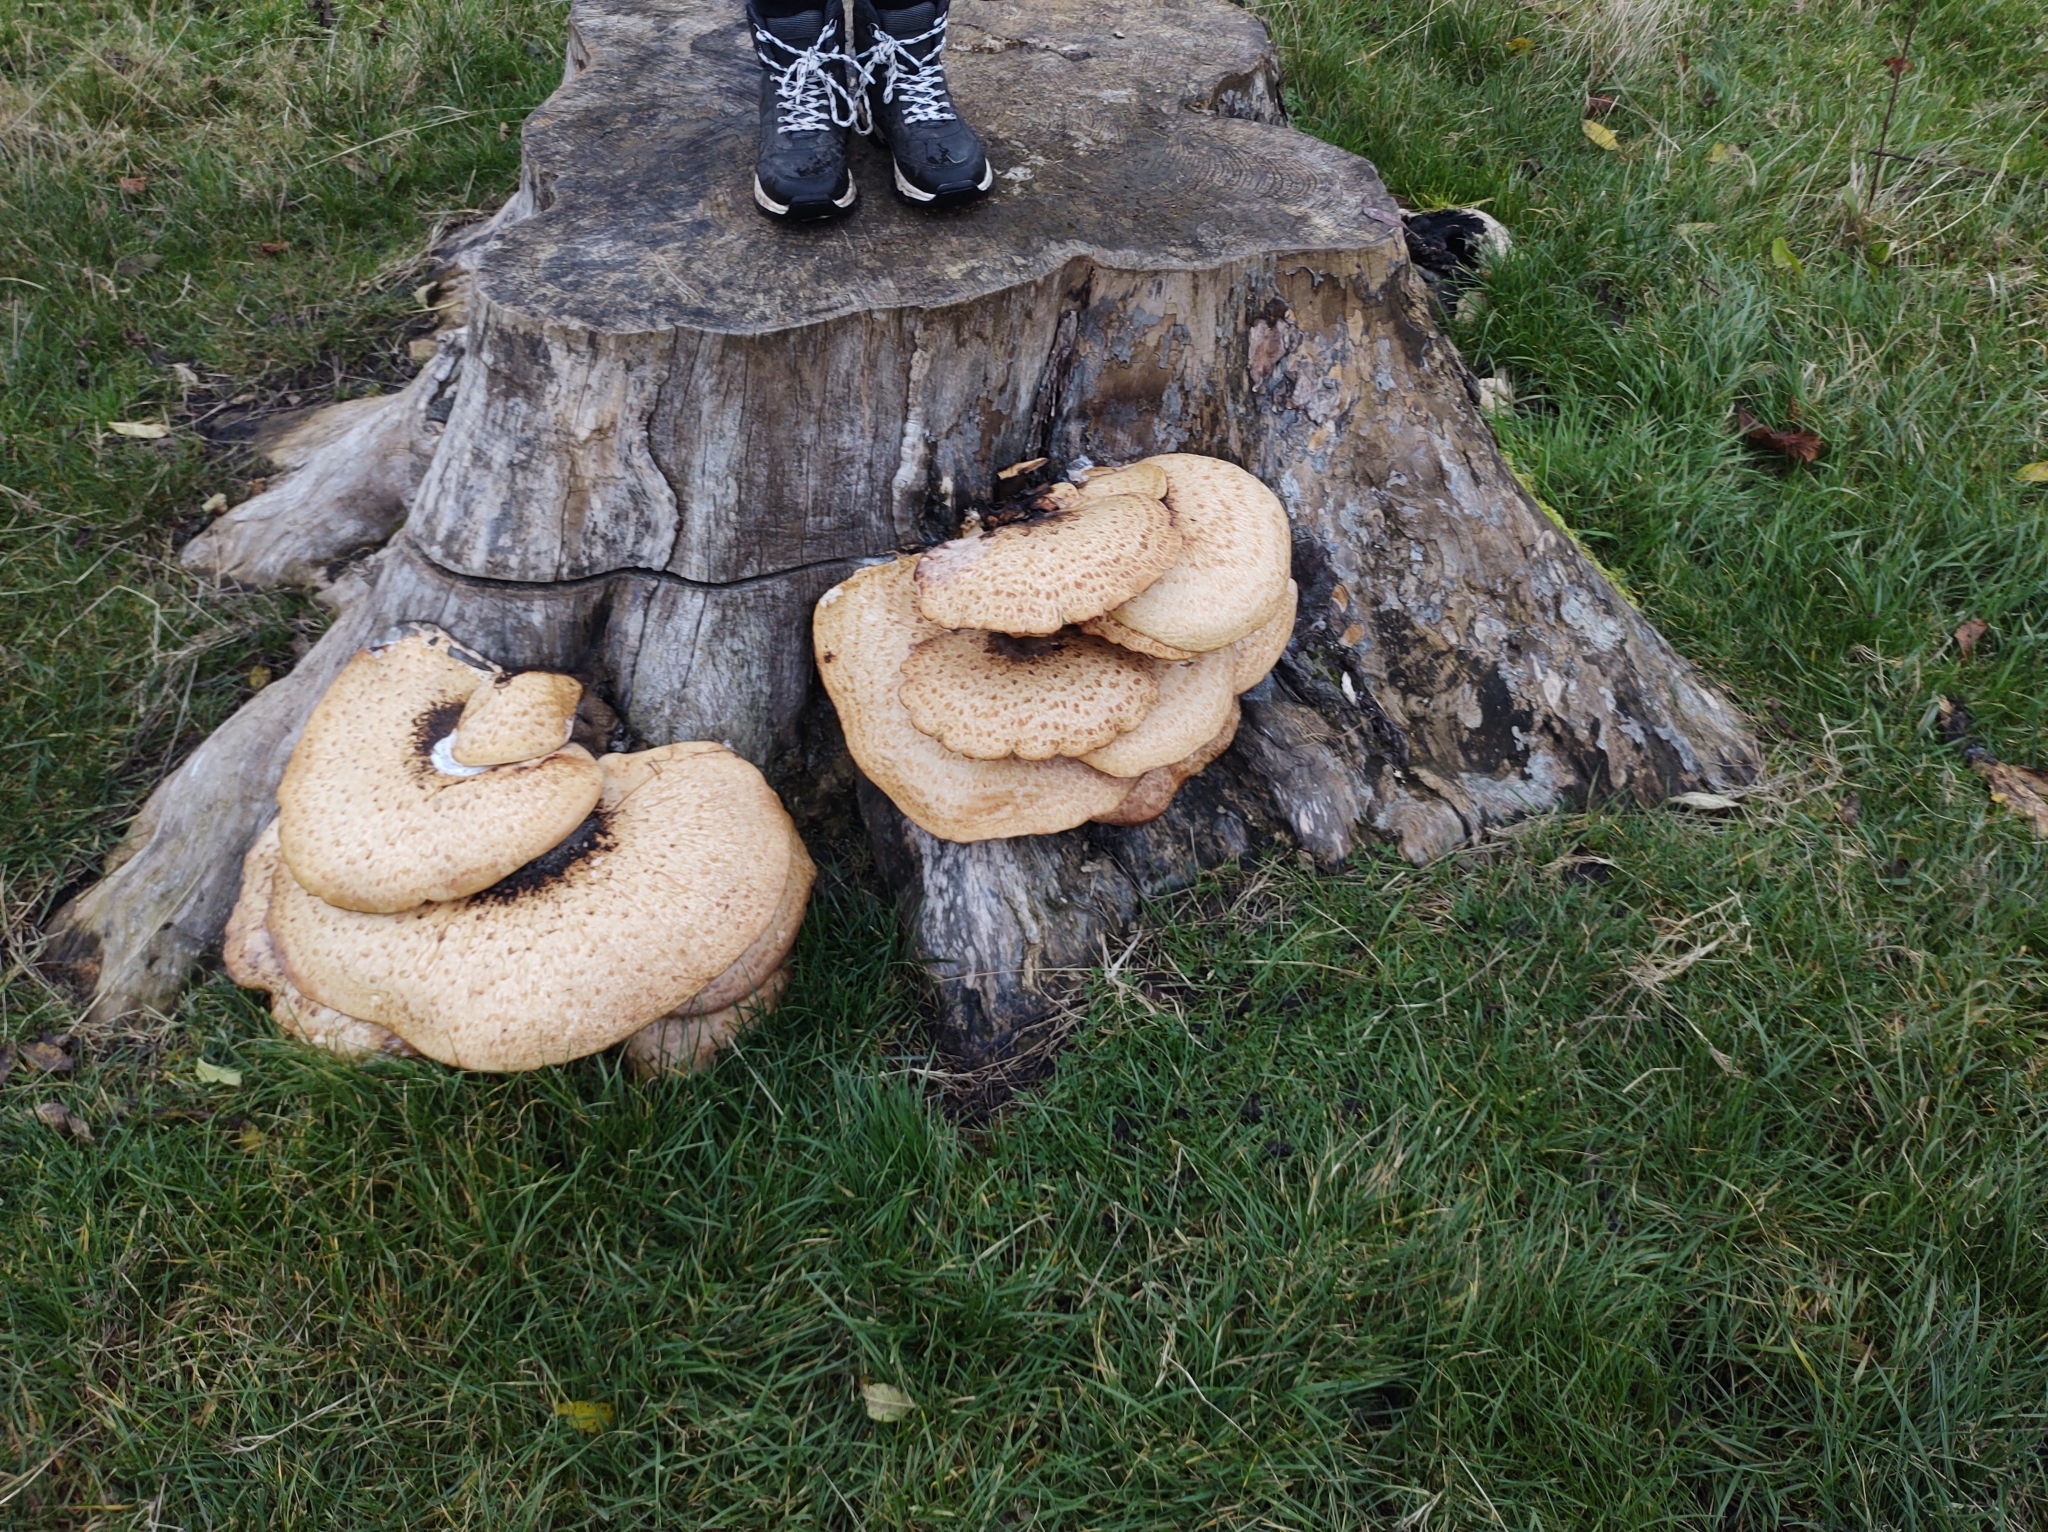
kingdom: Fungi
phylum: Basidiomycota
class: Agaricomycetes
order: Polyporales
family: Polyporaceae
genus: Cerioporus
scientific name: Cerioporus squamosus
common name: Dryad's saddle
